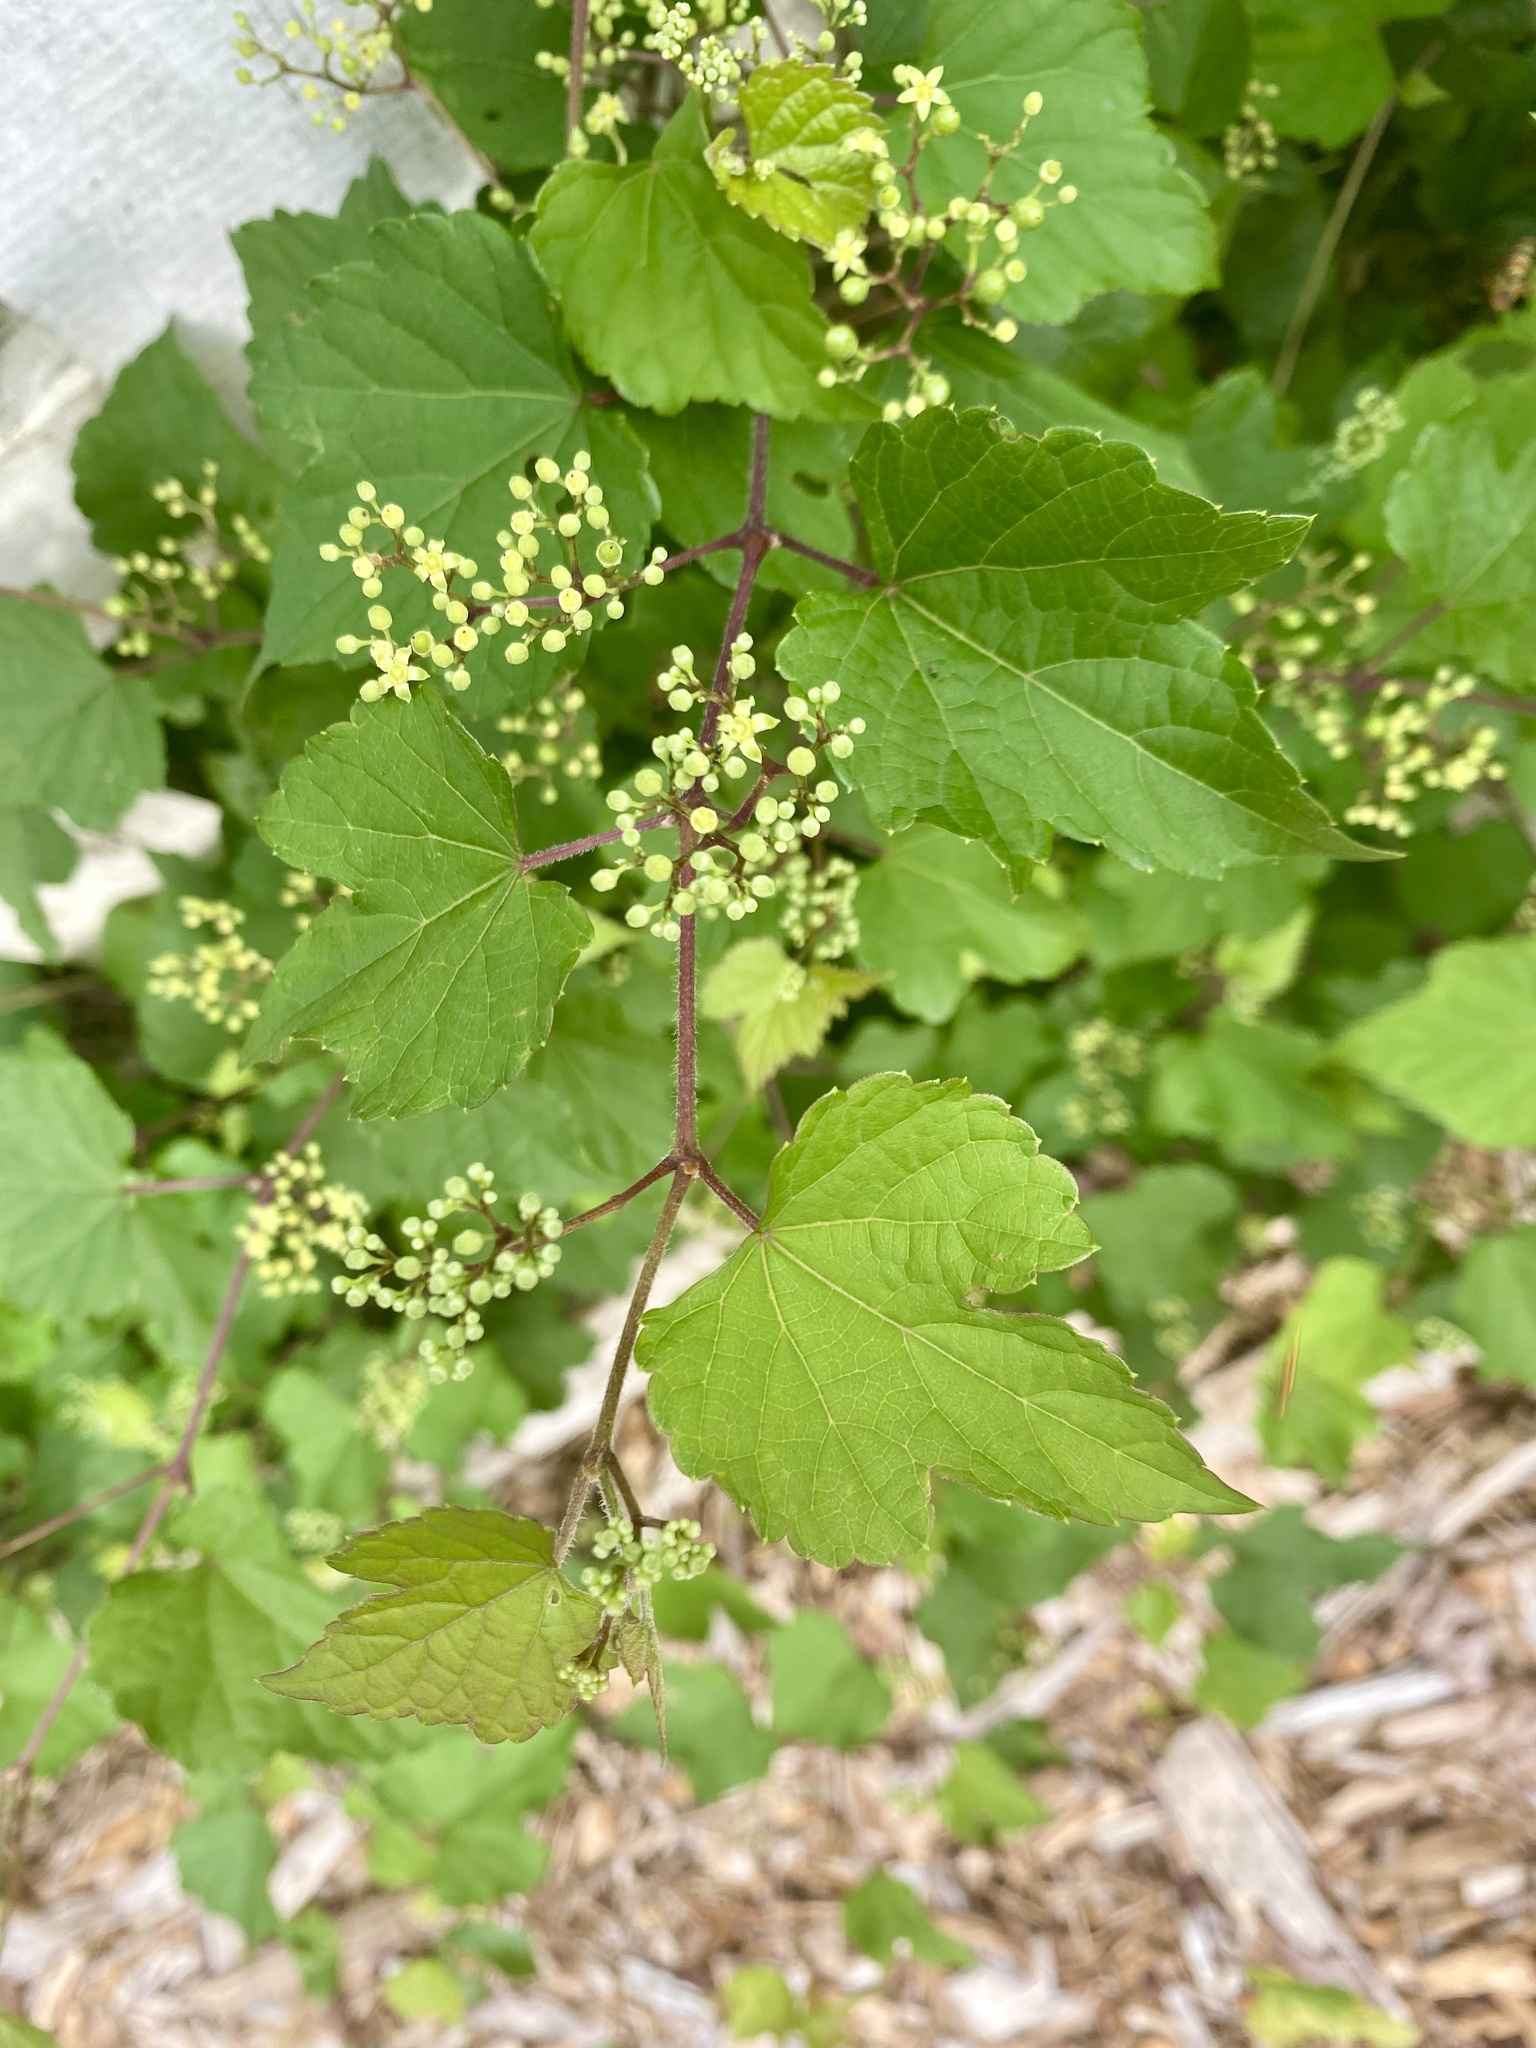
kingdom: Plantae
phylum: Tracheophyta
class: Magnoliopsida
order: Vitales
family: Vitaceae
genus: Ampelopsis
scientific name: Ampelopsis glandulosa
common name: Amur peppervine
